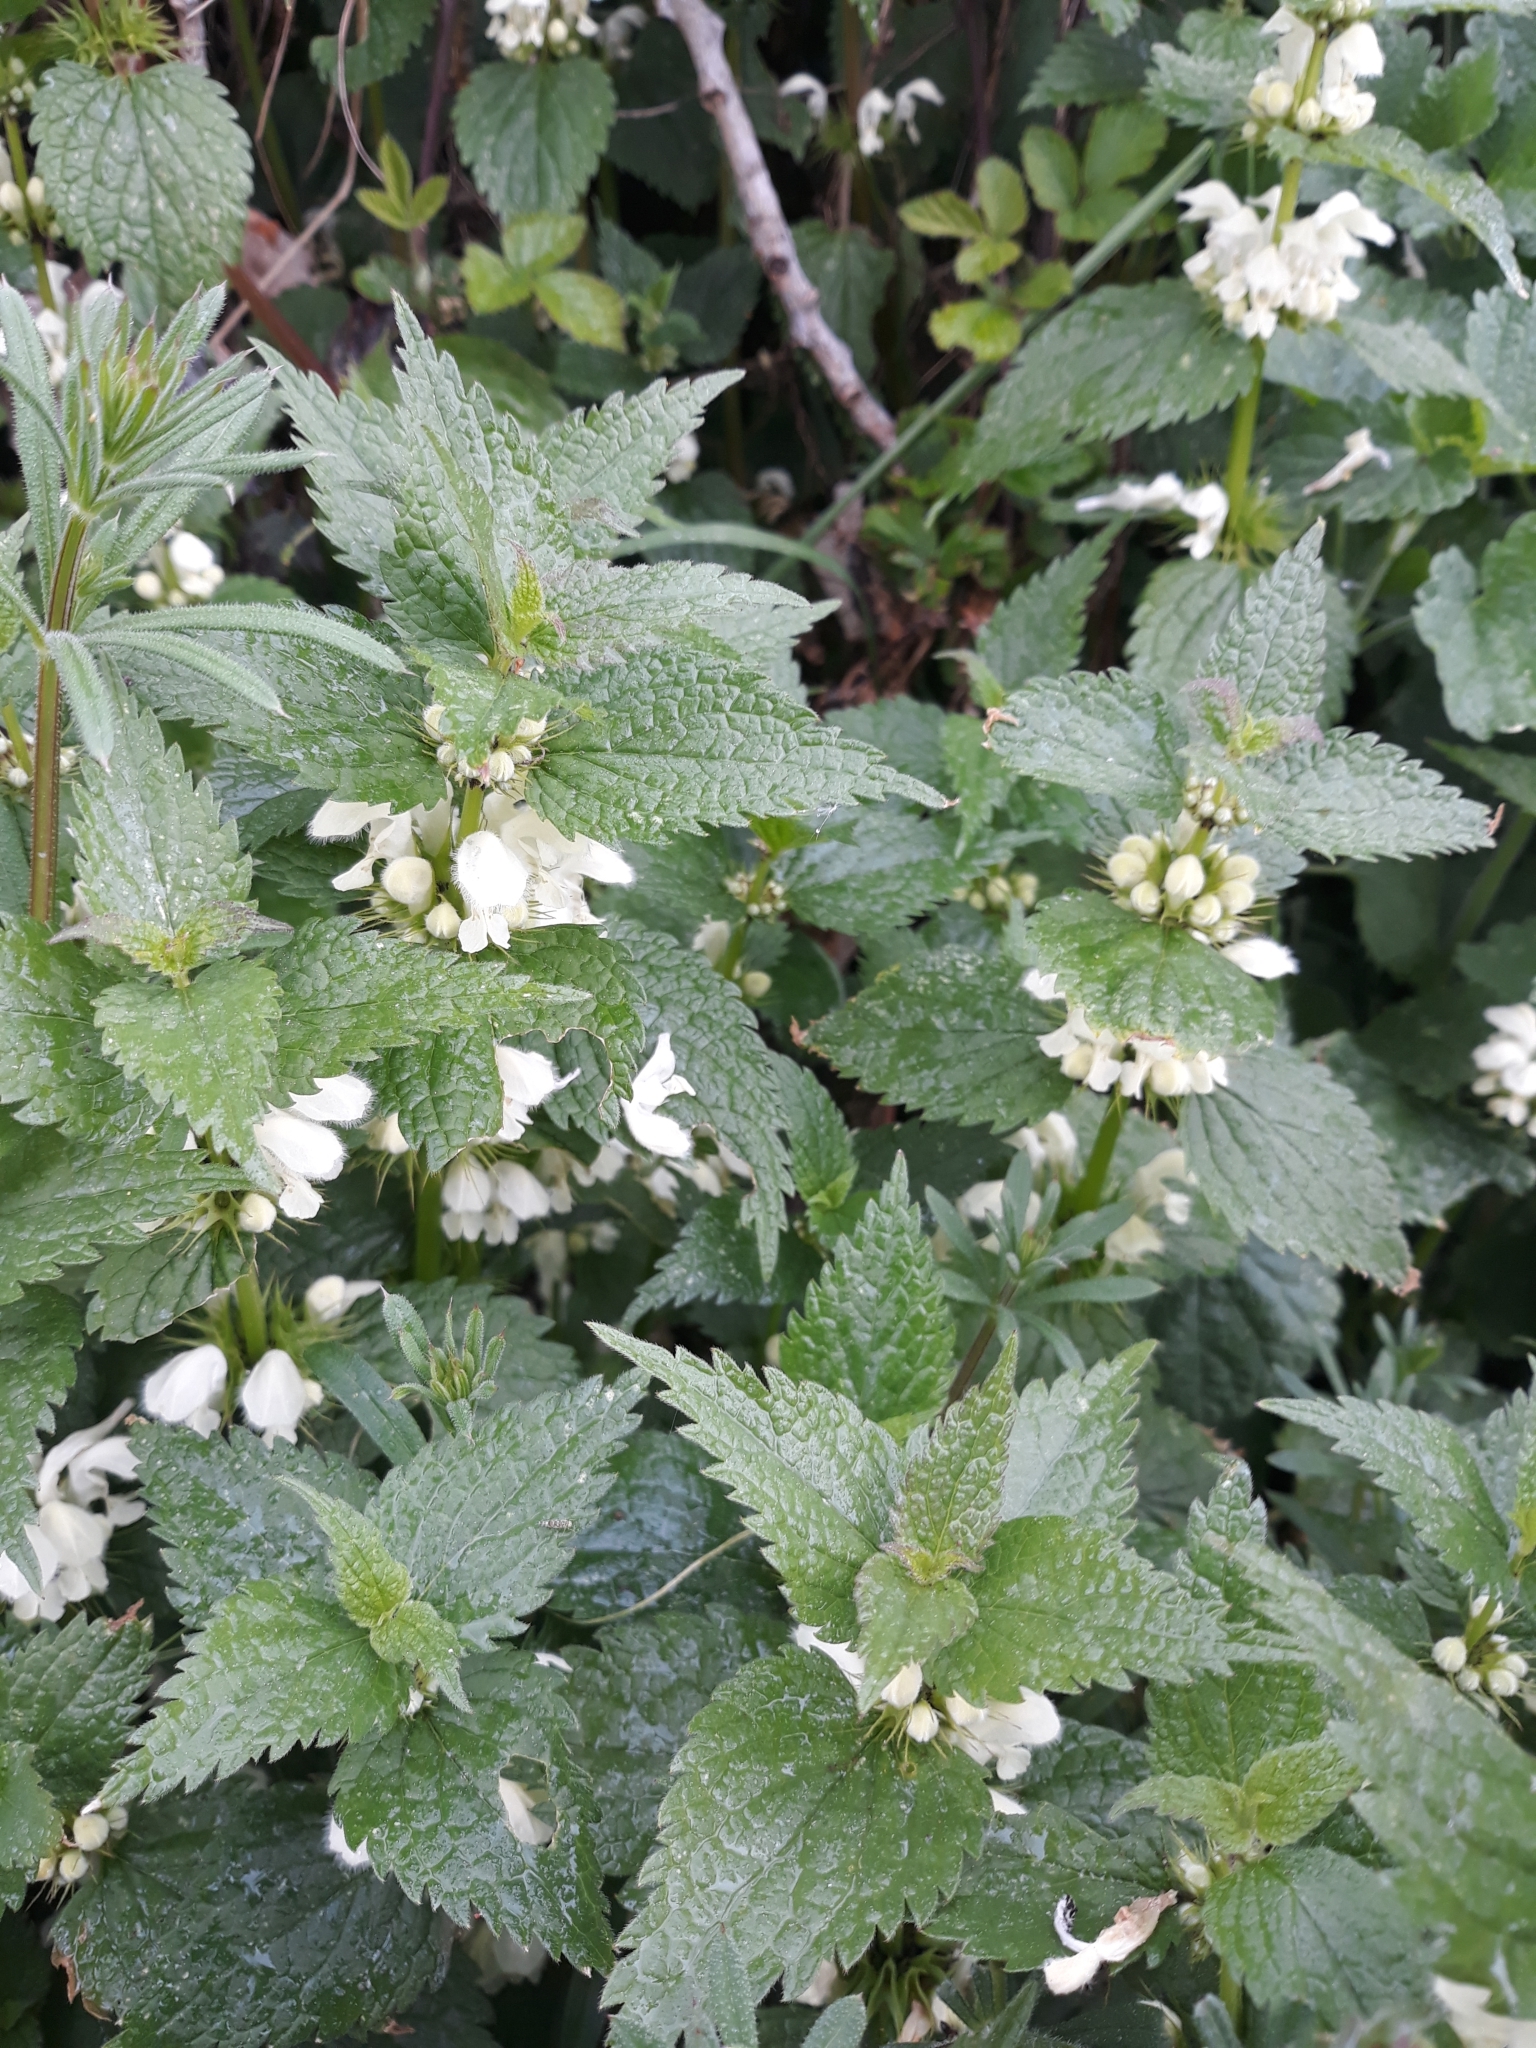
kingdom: Plantae
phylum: Tracheophyta
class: Magnoliopsida
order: Lamiales
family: Lamiaceae
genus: Lamium
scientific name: Lamium album
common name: White dead-nettle
